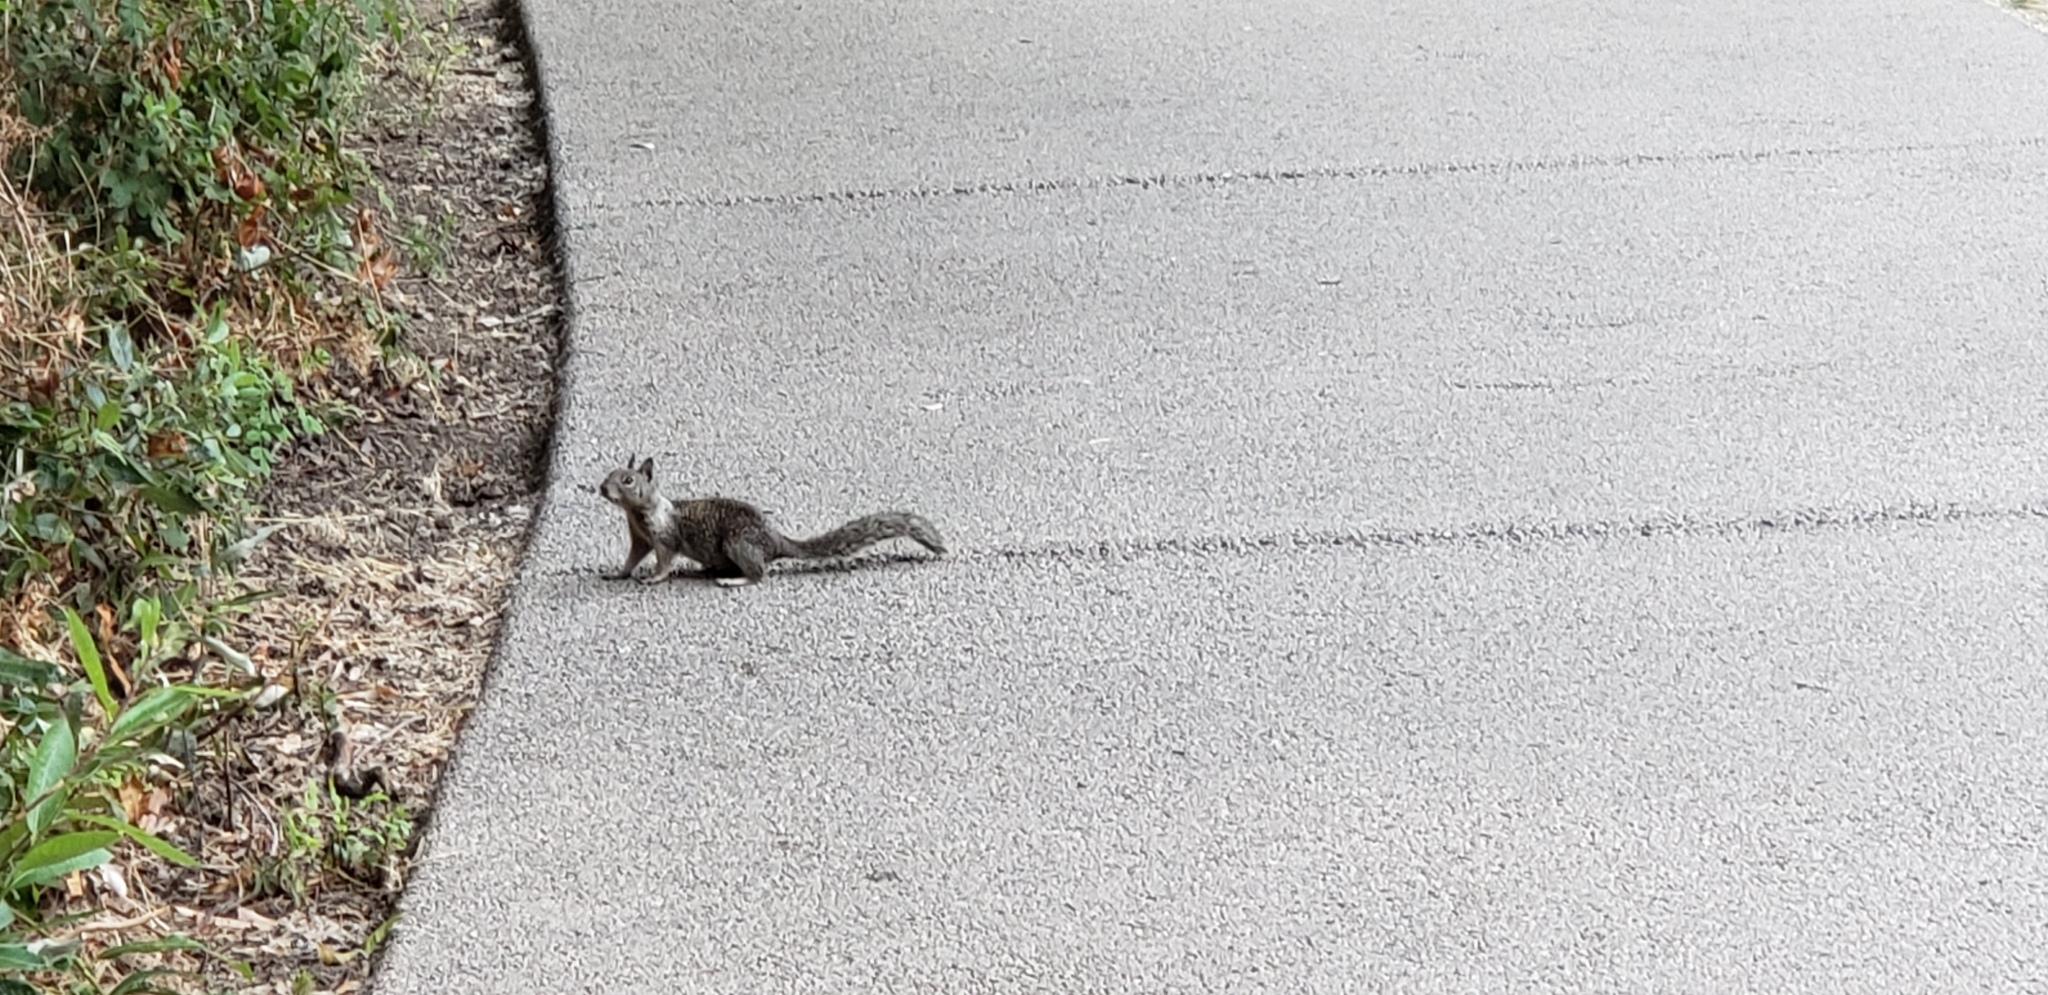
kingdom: Animalia
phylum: Chordata
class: Mammalia
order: Rodentia
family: Sciuridae
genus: Otospermophilus
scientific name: Otospermophilus beecheyi
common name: California ground squirrel
